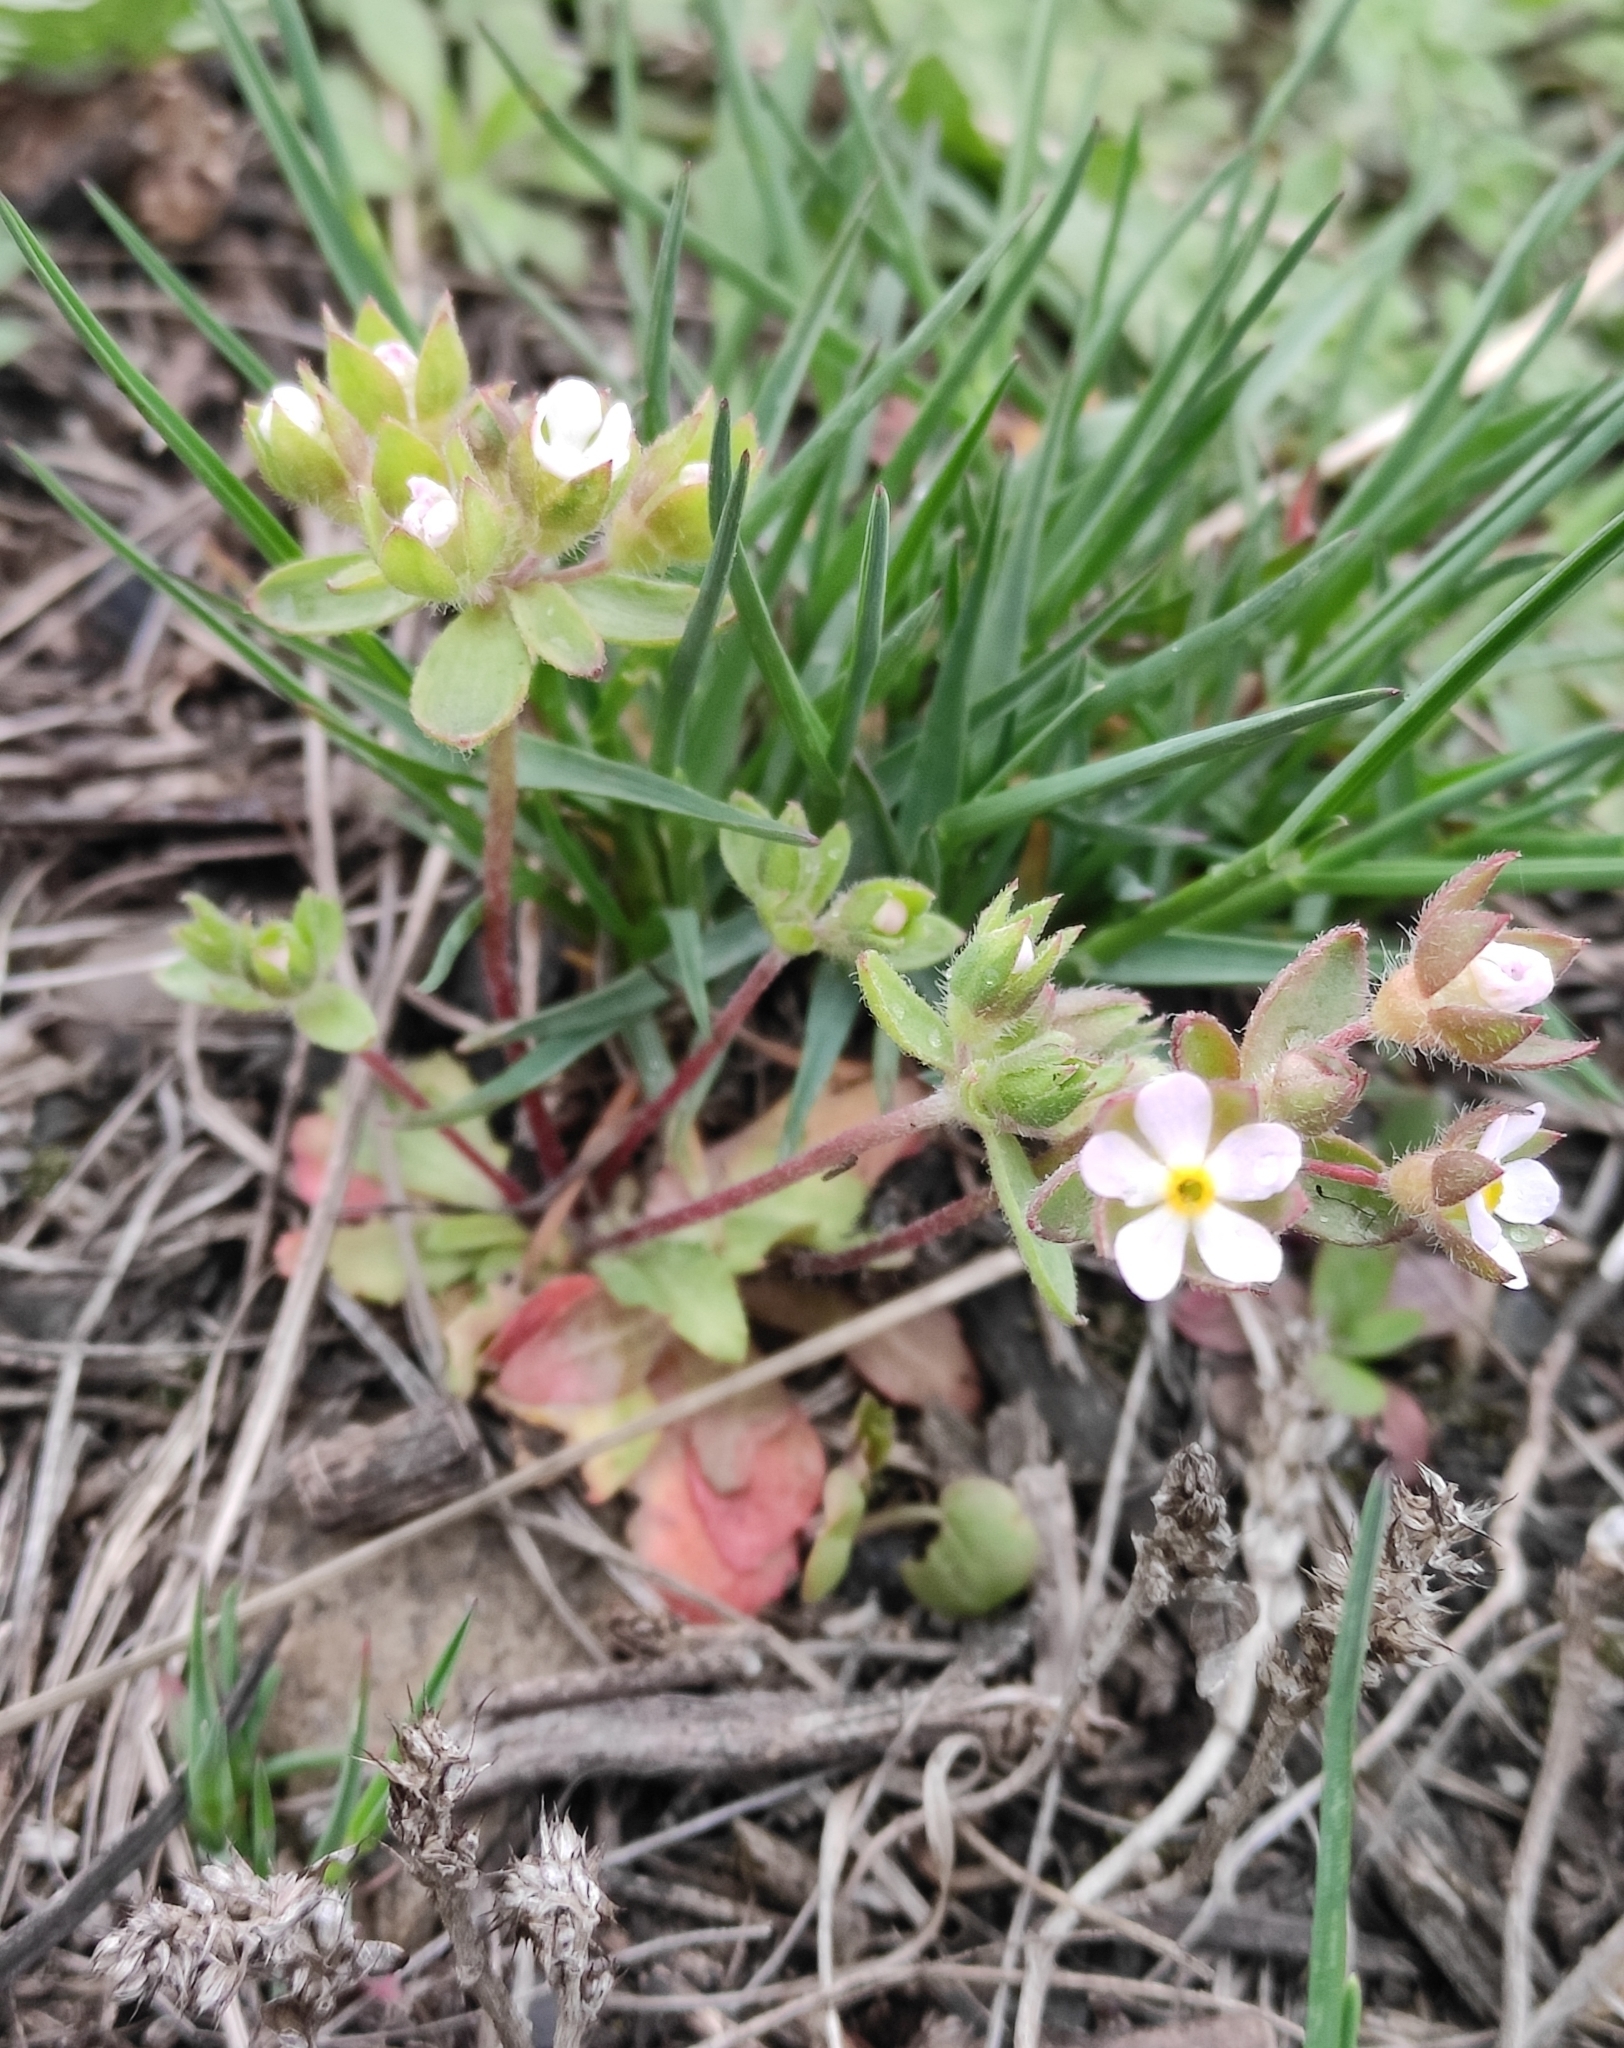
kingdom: Plantae
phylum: Tracheophyta
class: Magnoliopsida
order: Ericales
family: Primulaceae
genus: Androsace
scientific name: Androsace maxima
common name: Annual androsace
